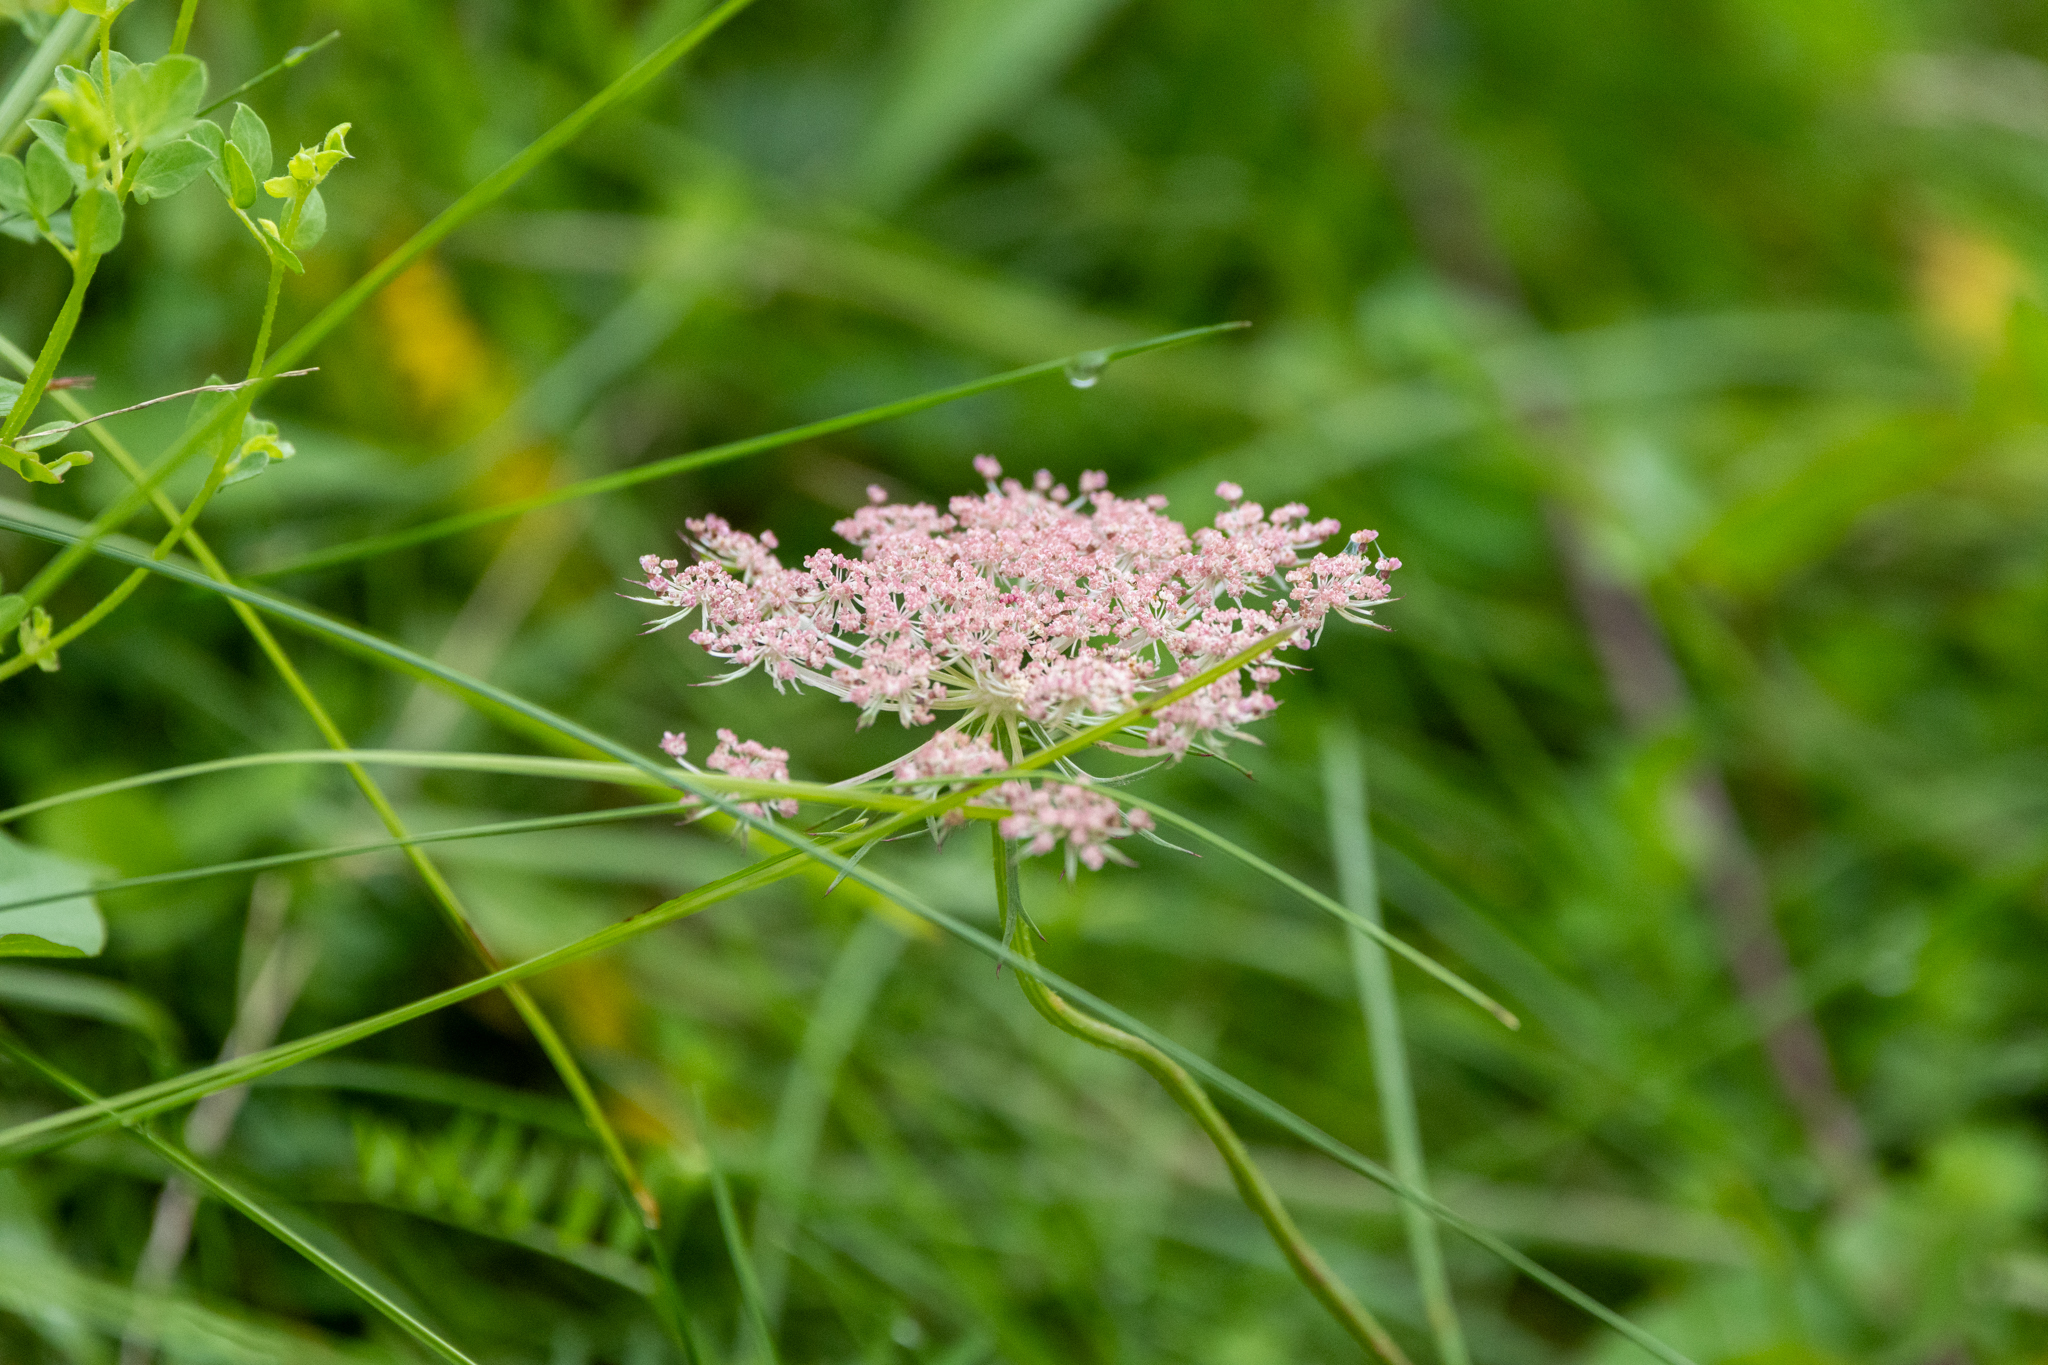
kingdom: Plantae
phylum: Tracheophyta
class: Magnoliopsida
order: Apiales
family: Apiaceae
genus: Daucus
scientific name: Daucus carota
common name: Wild carrot
